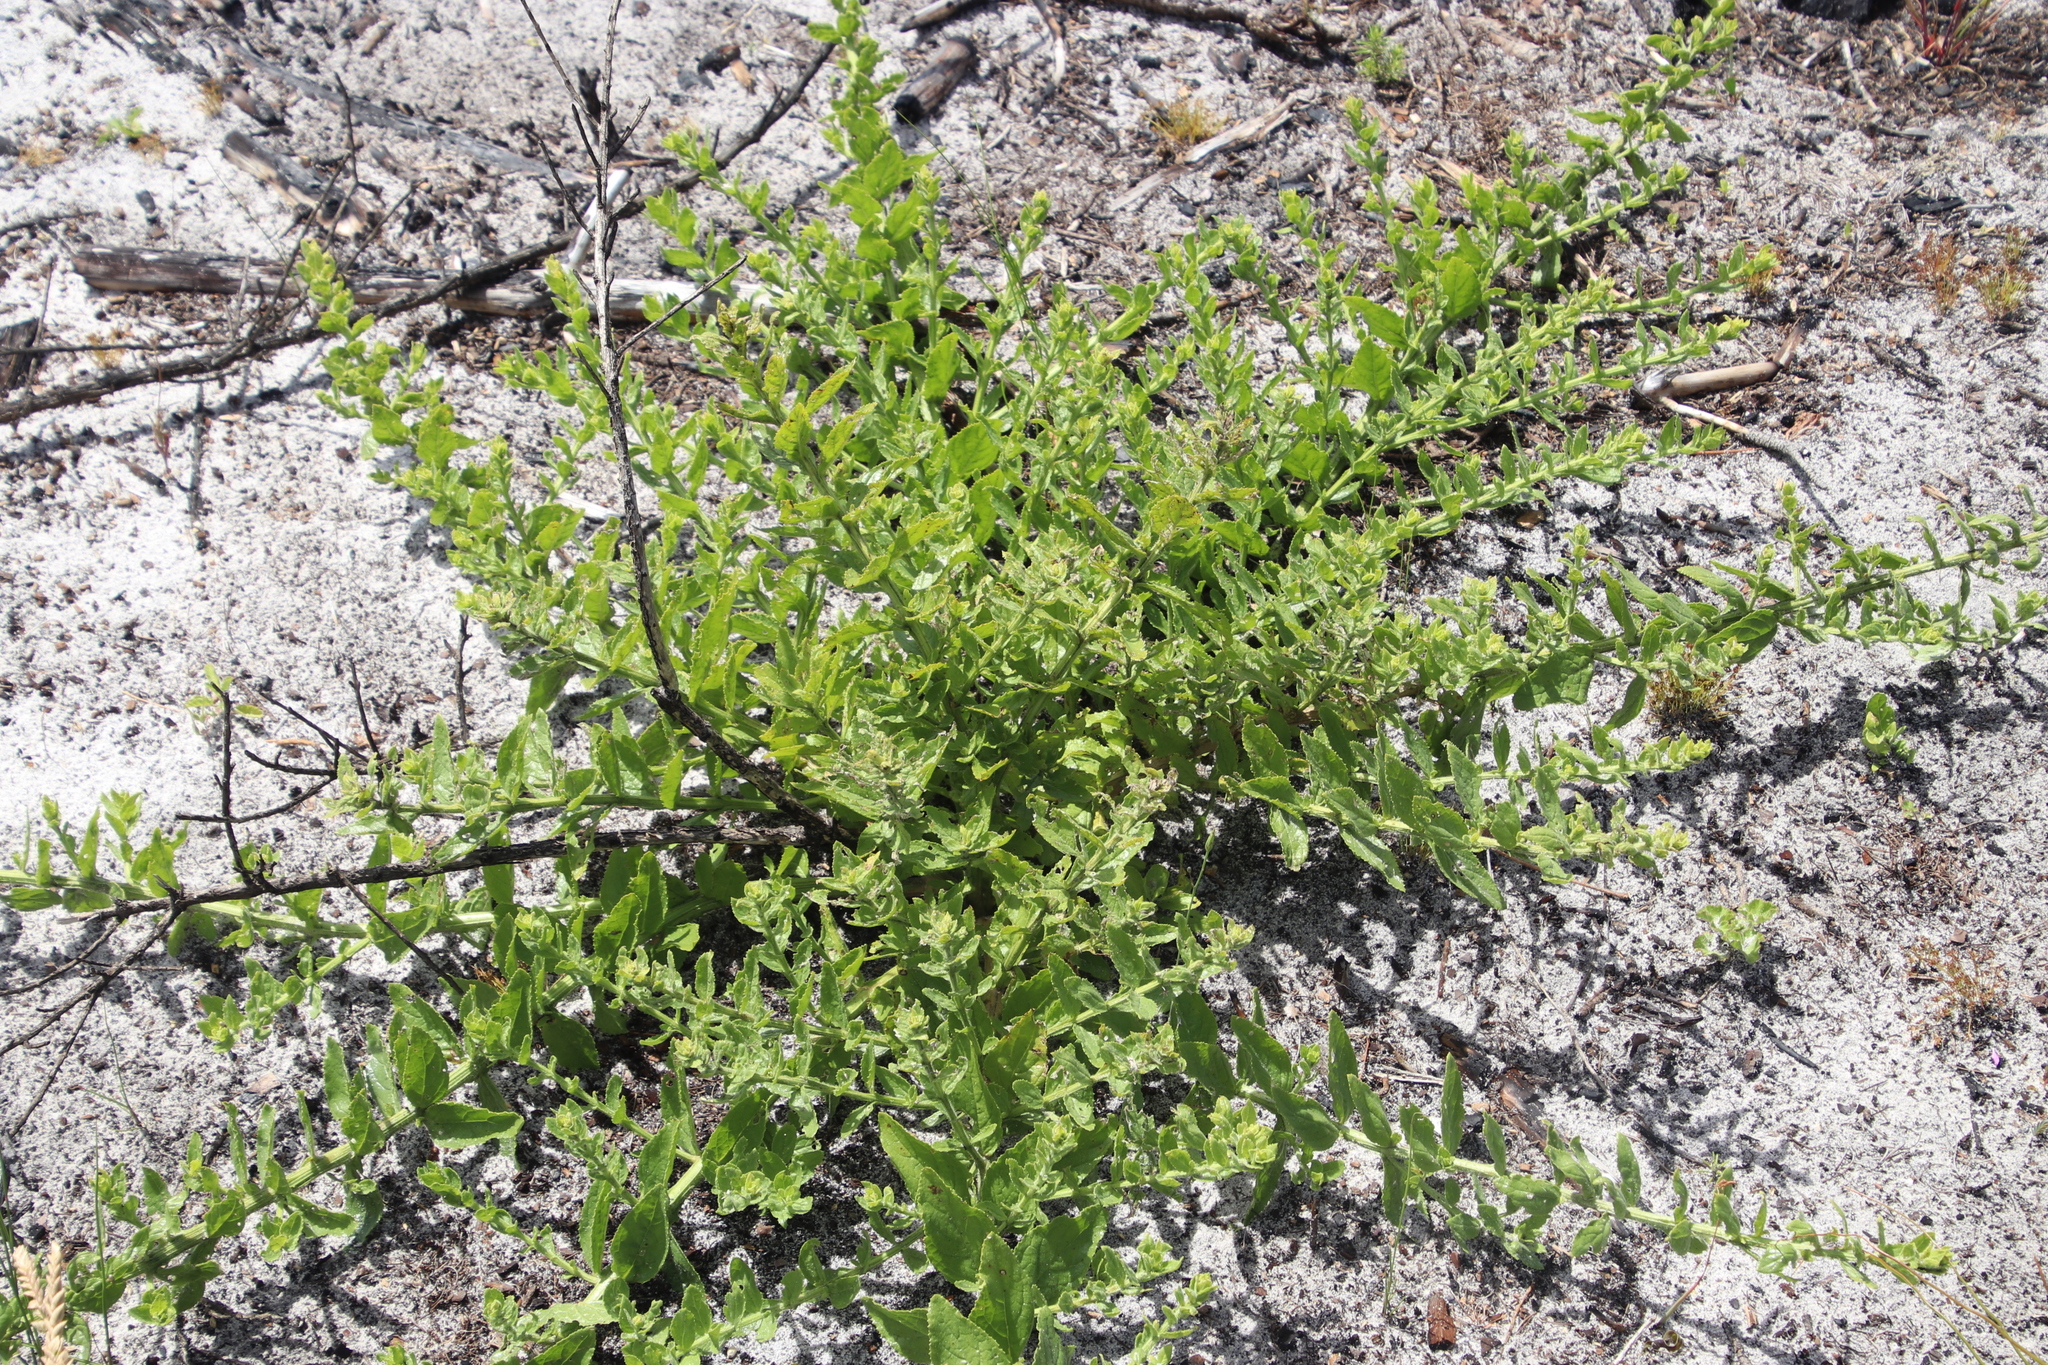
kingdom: Plantae
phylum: Tracheophyta
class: Magnoliopsida
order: Lamiales
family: Scrophulariaceae
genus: Oftia
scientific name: Oftia africana
